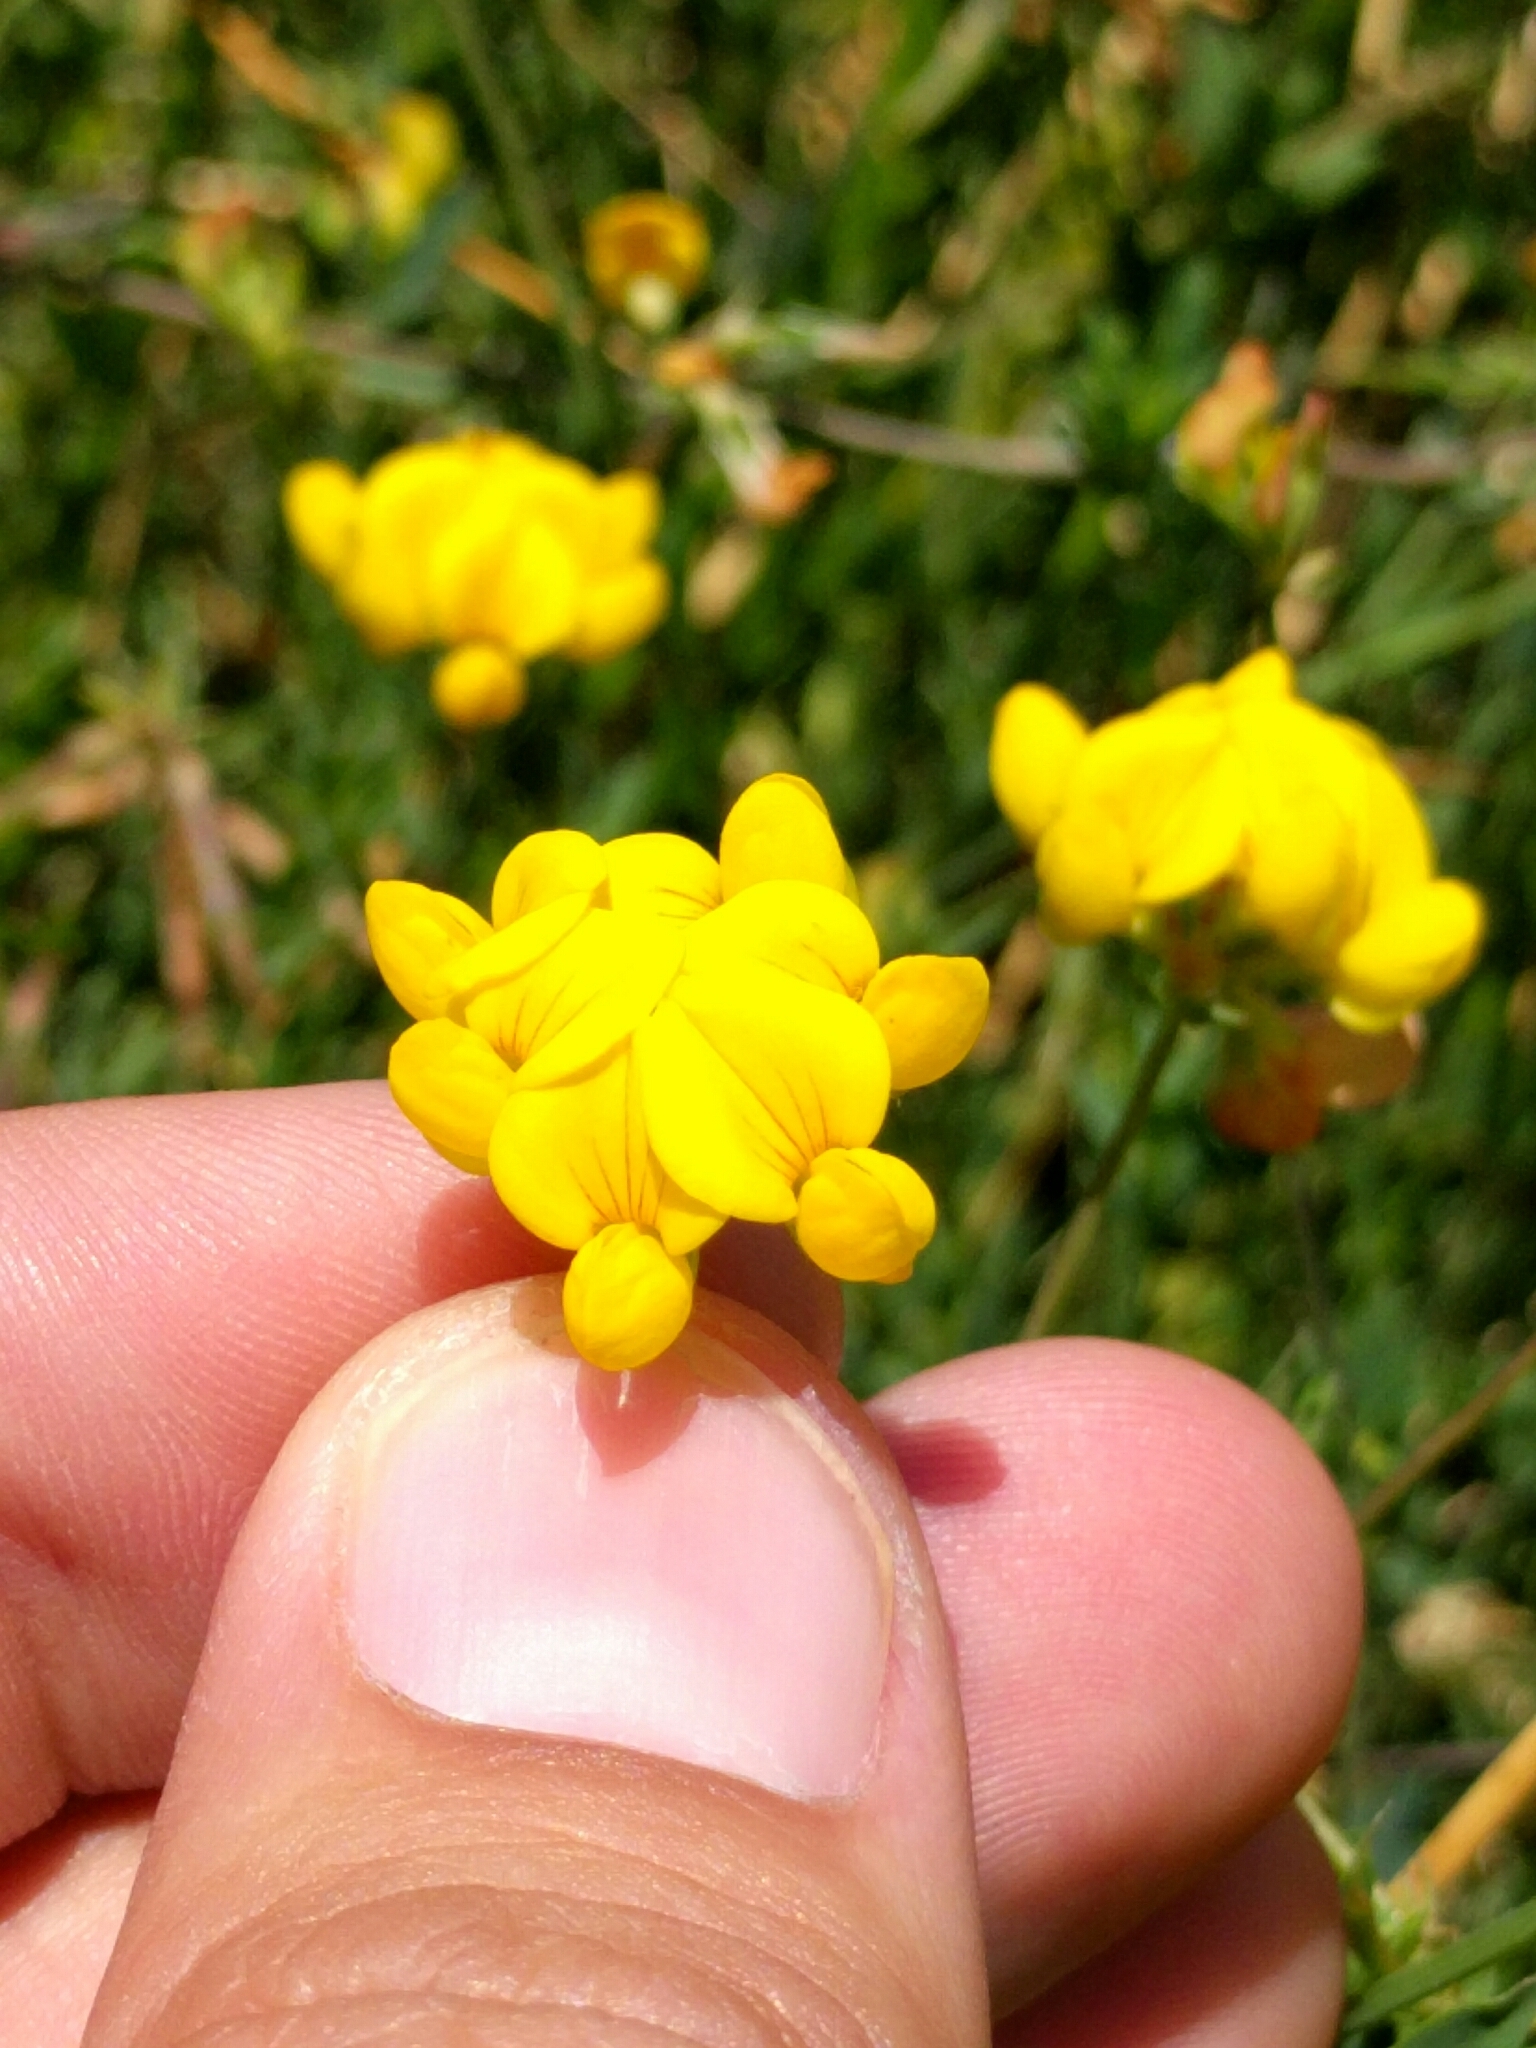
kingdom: Plantae
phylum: Tracheophyta
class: Magnoliopsida
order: Fabales
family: Fabaceae
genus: Lotus
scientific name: Lotus corniculatus
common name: Common bird's-foot-trefoil
